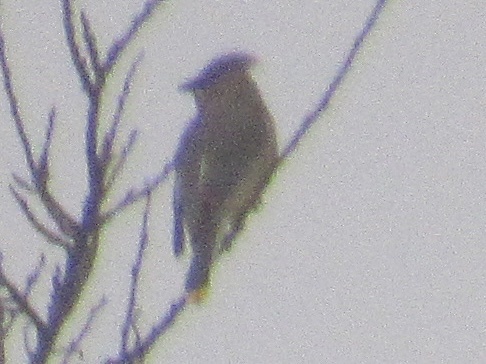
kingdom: Animalia
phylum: Chordata
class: Aves
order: Passeriformes
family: Bombycillidae
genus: Bombycilla
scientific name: Bombycilla cedrorum
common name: Cedar waxwing
